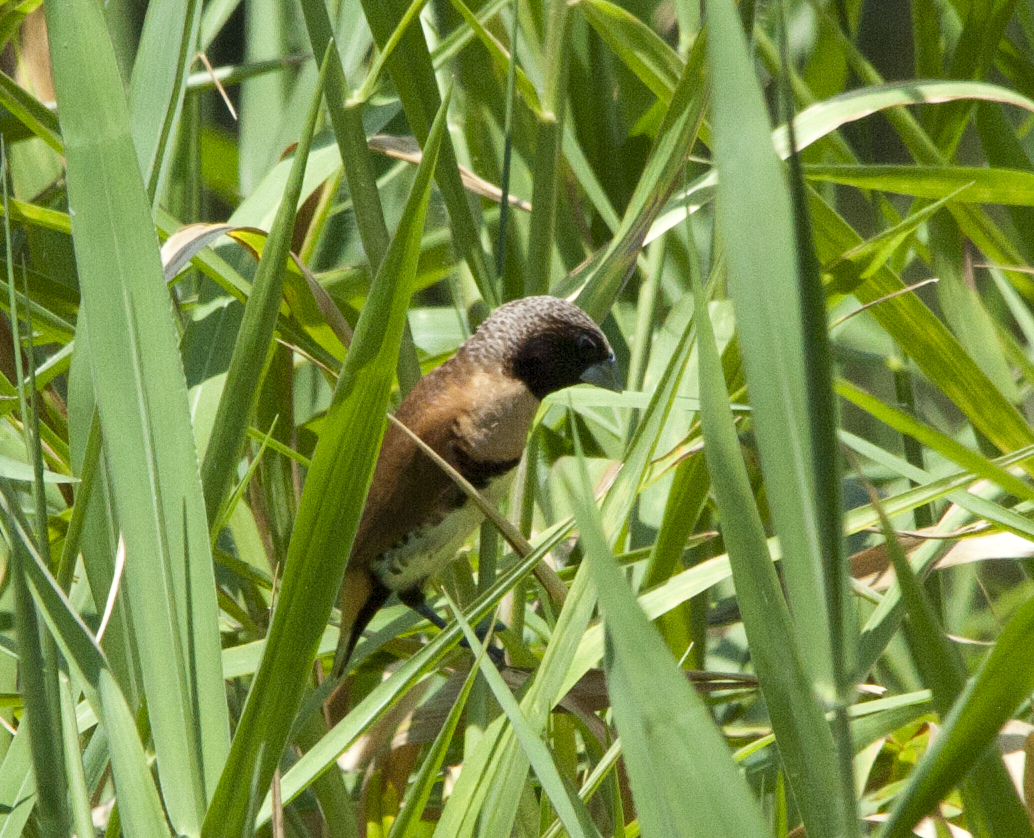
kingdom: Animalia
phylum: Chordata
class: Aves
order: Passeriformes
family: Estrildidae
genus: Lonchura
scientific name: Lonchura castaneothorax
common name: Chestnut-breasted mannikin
